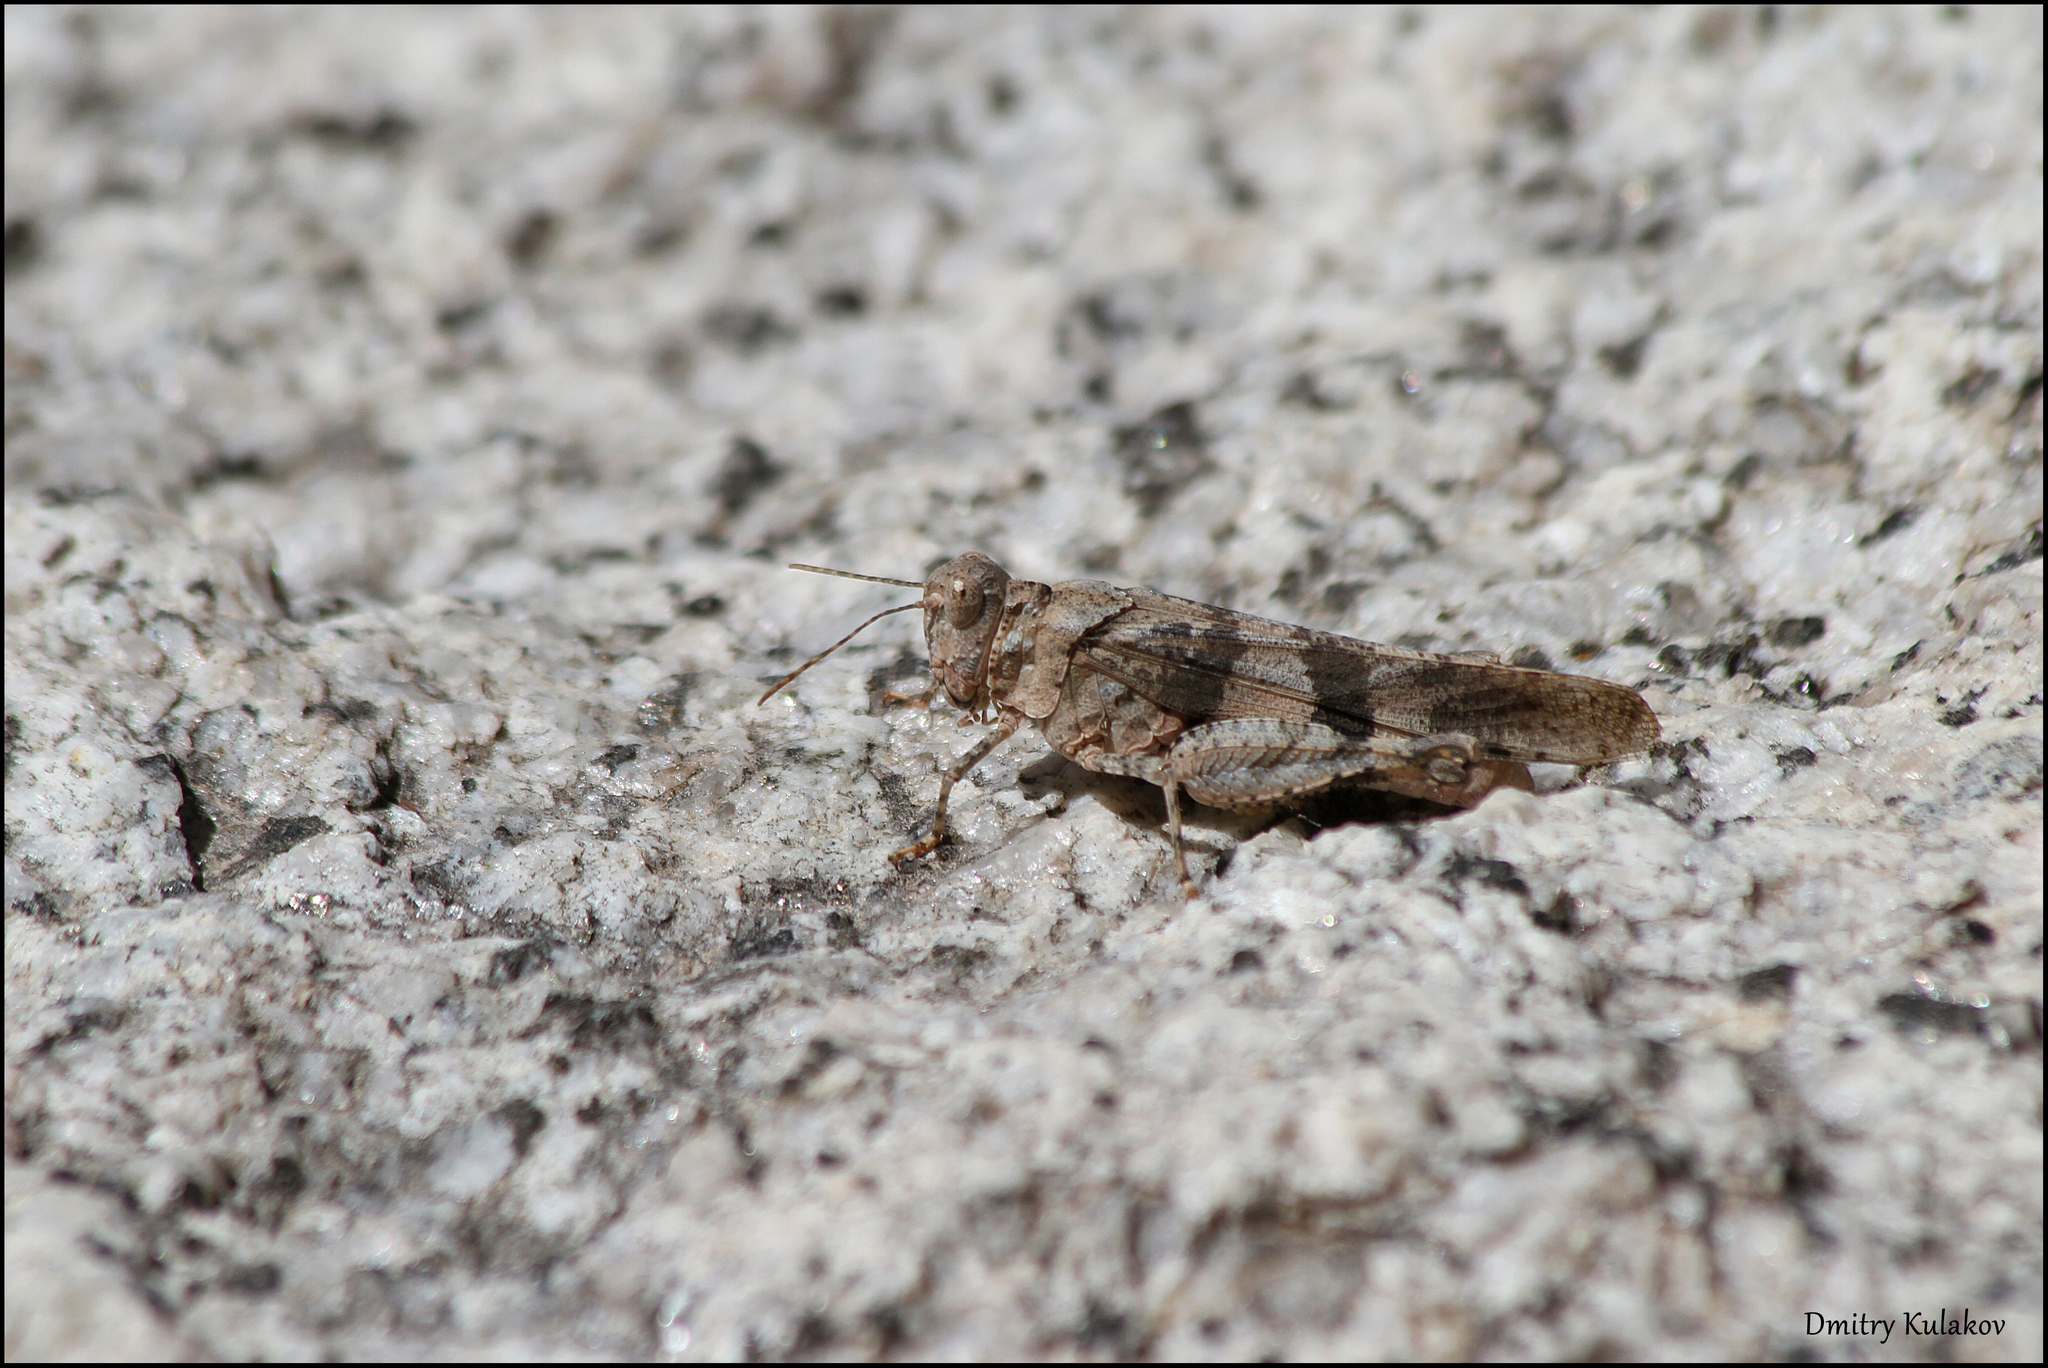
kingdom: Animalia
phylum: Arthropoda
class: Insecta
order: Orthoptera
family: Acrididae
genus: Oedipoda
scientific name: Oedipoda fedtschenki
